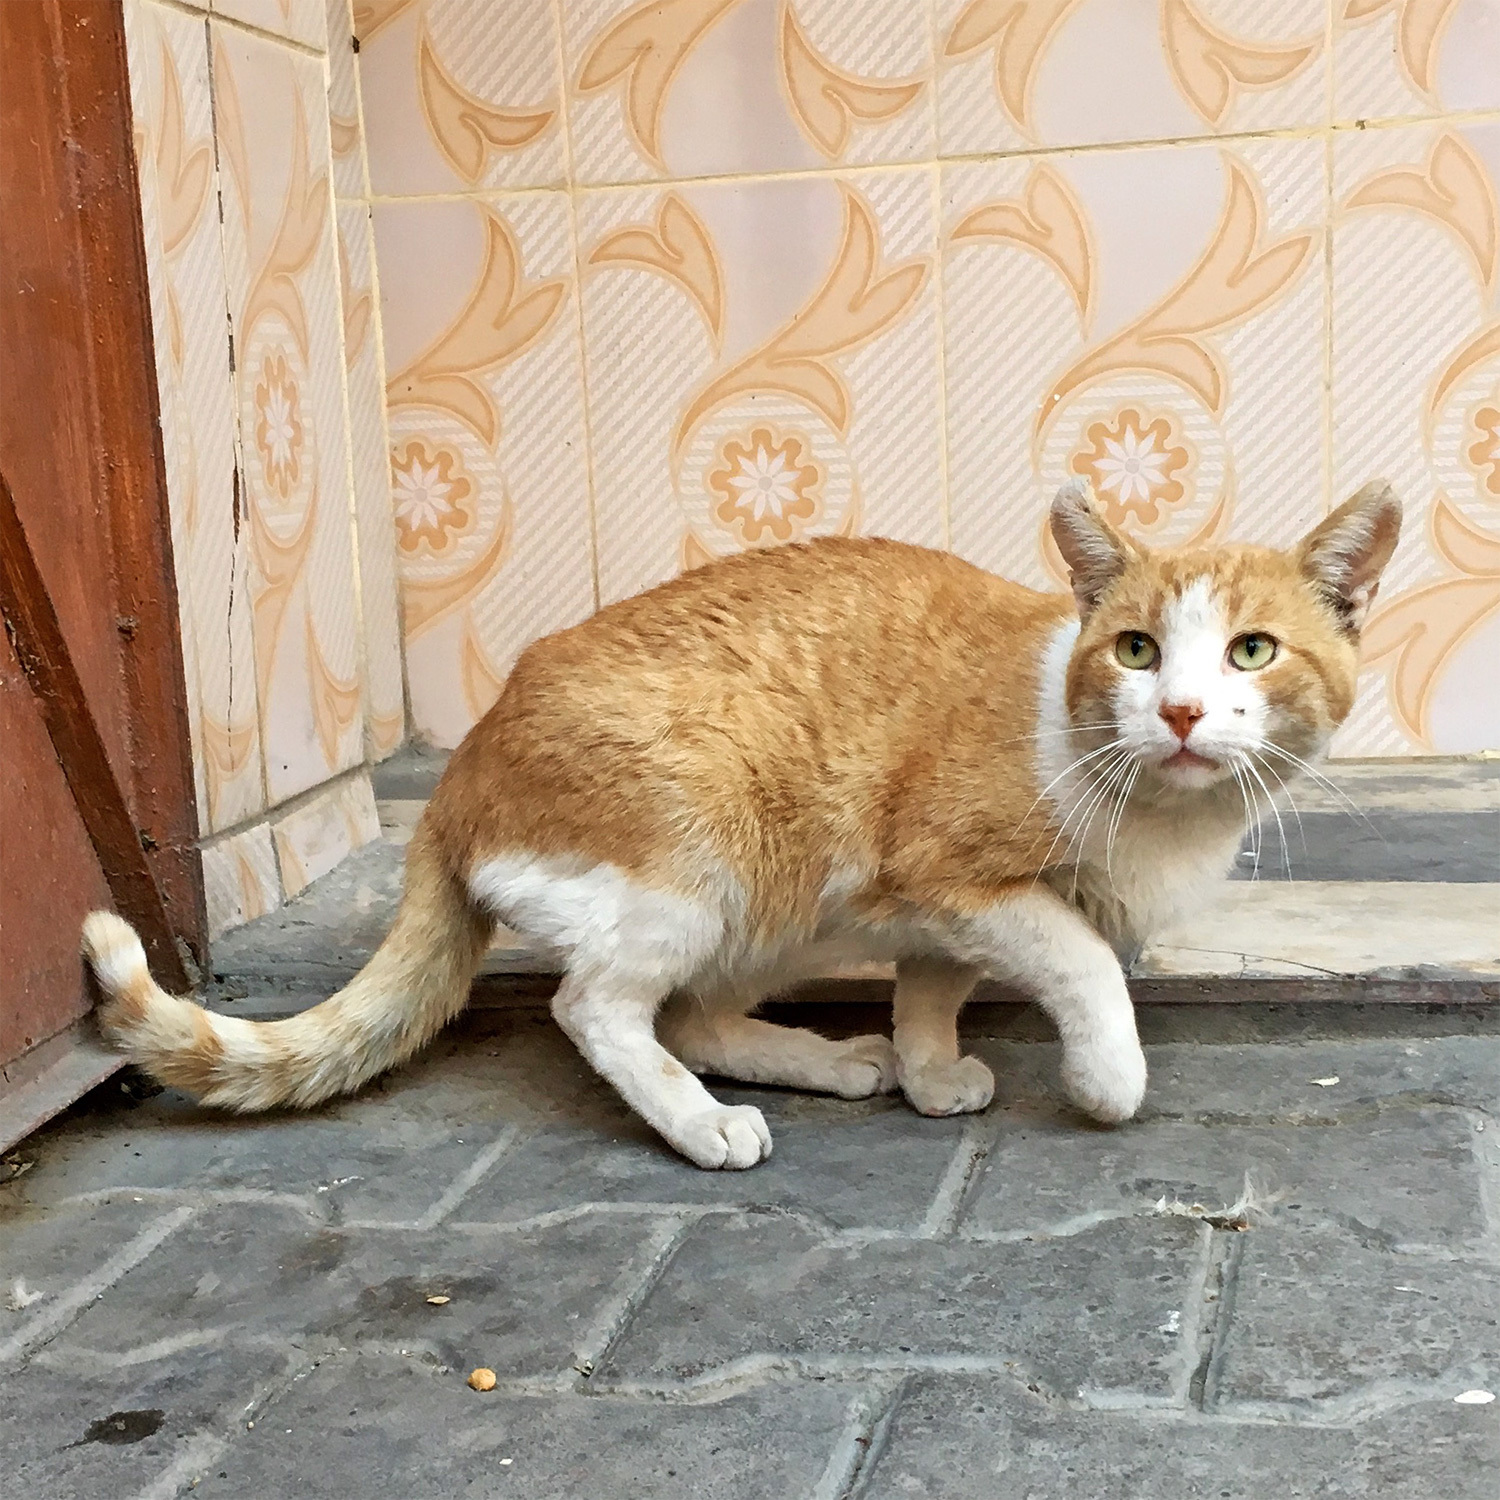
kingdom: Animalia
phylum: Chordata
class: Mammalia
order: Carnivora
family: Felidae
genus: Felis
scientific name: Felis catus
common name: Domestic cat
